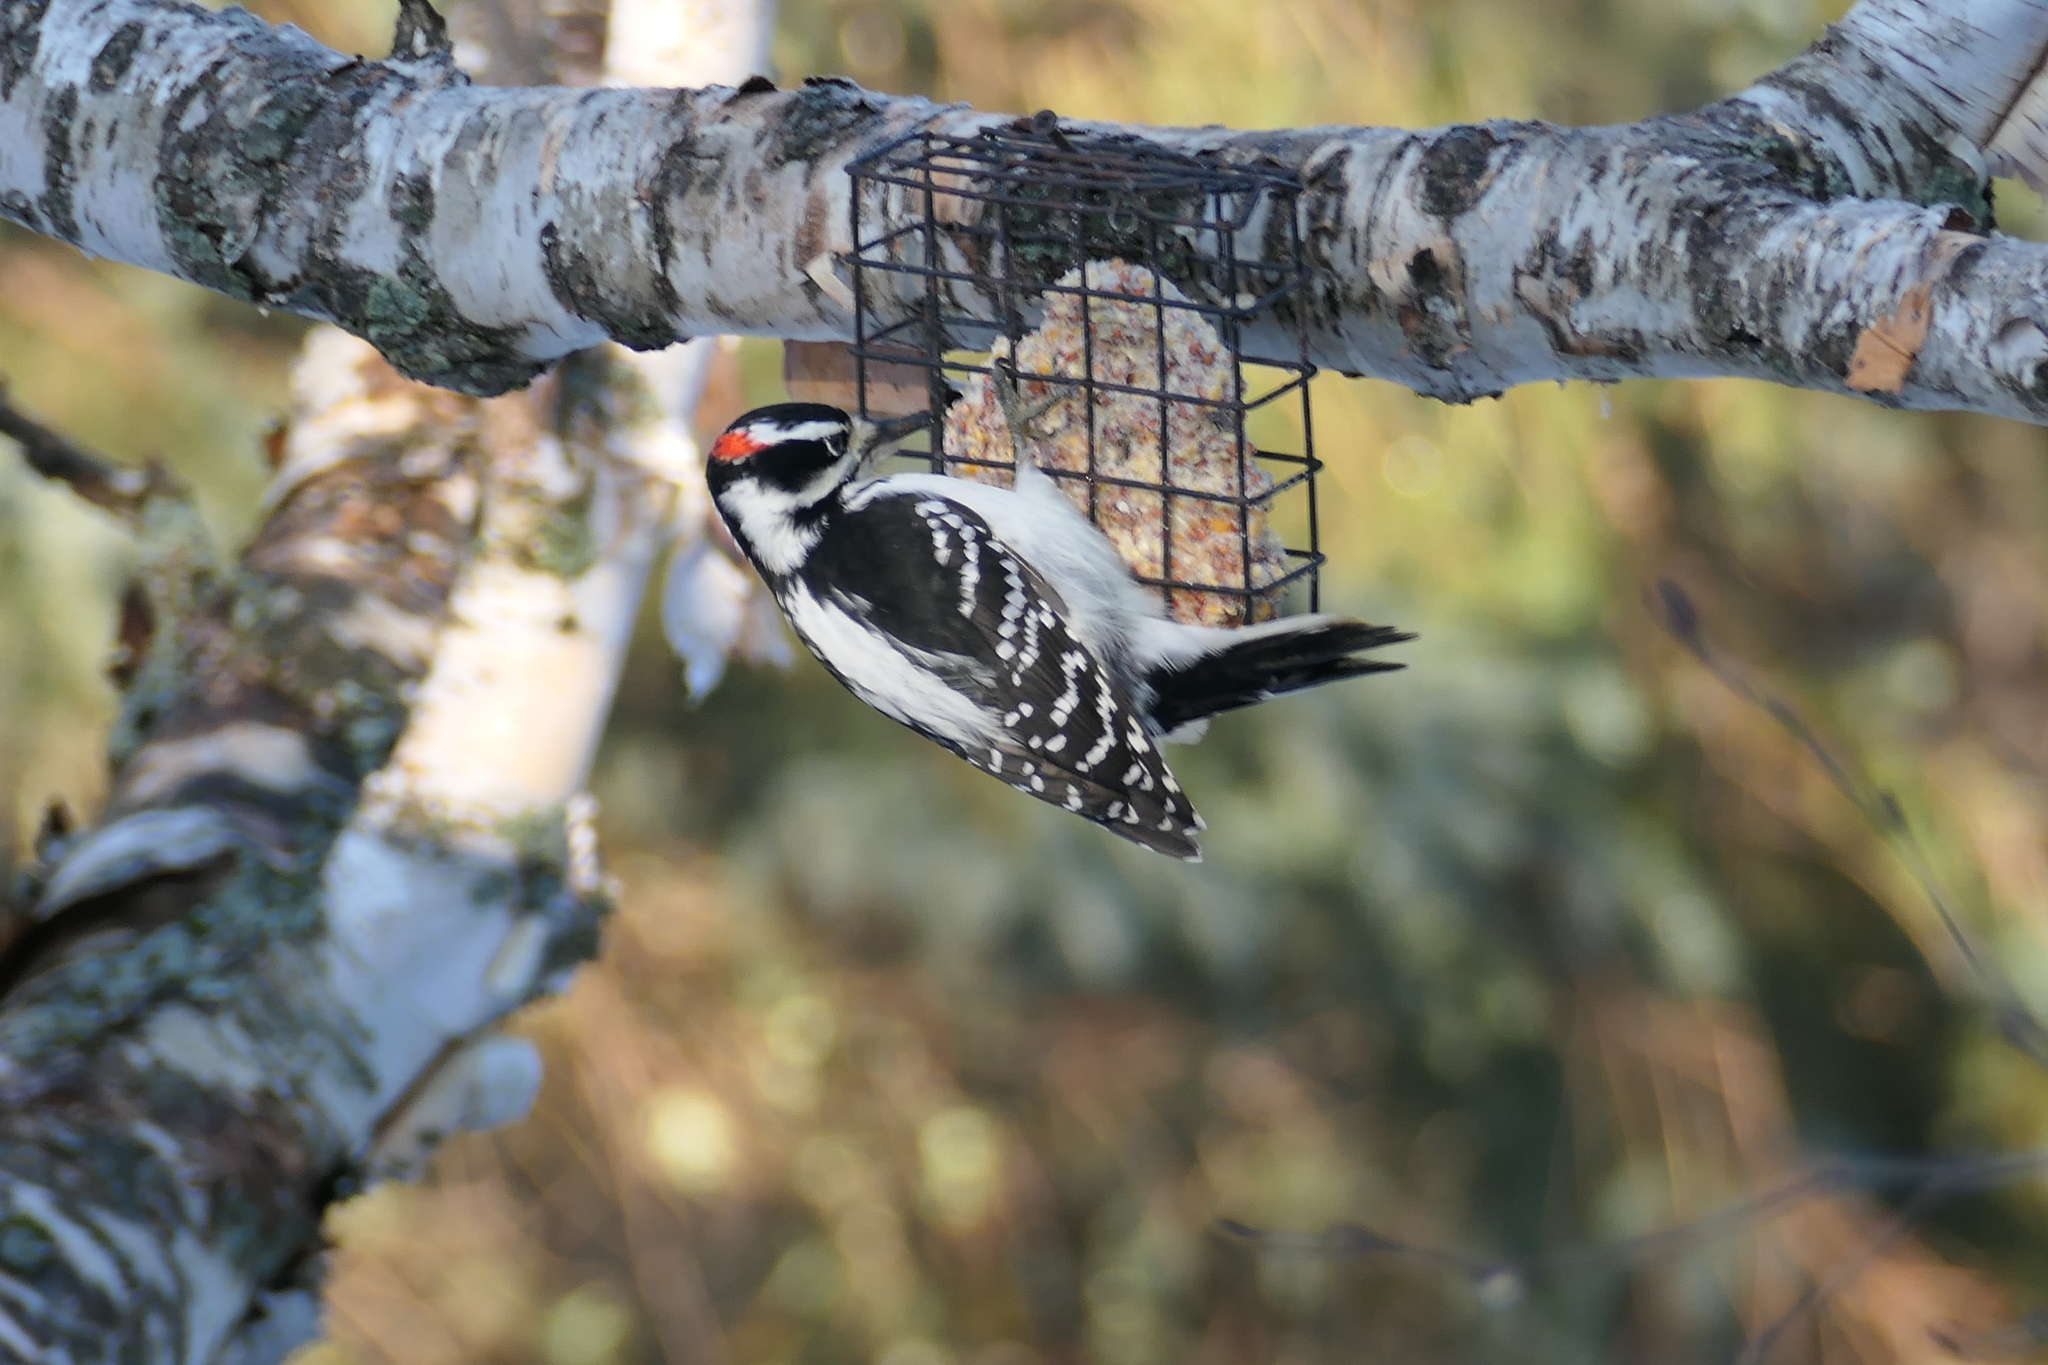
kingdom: Animalia
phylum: Chordata
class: Aves
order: Piciformes
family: Picidae
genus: Leuconotopicus
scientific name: Leuconotopicus villosus
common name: Hairy woodpecker
